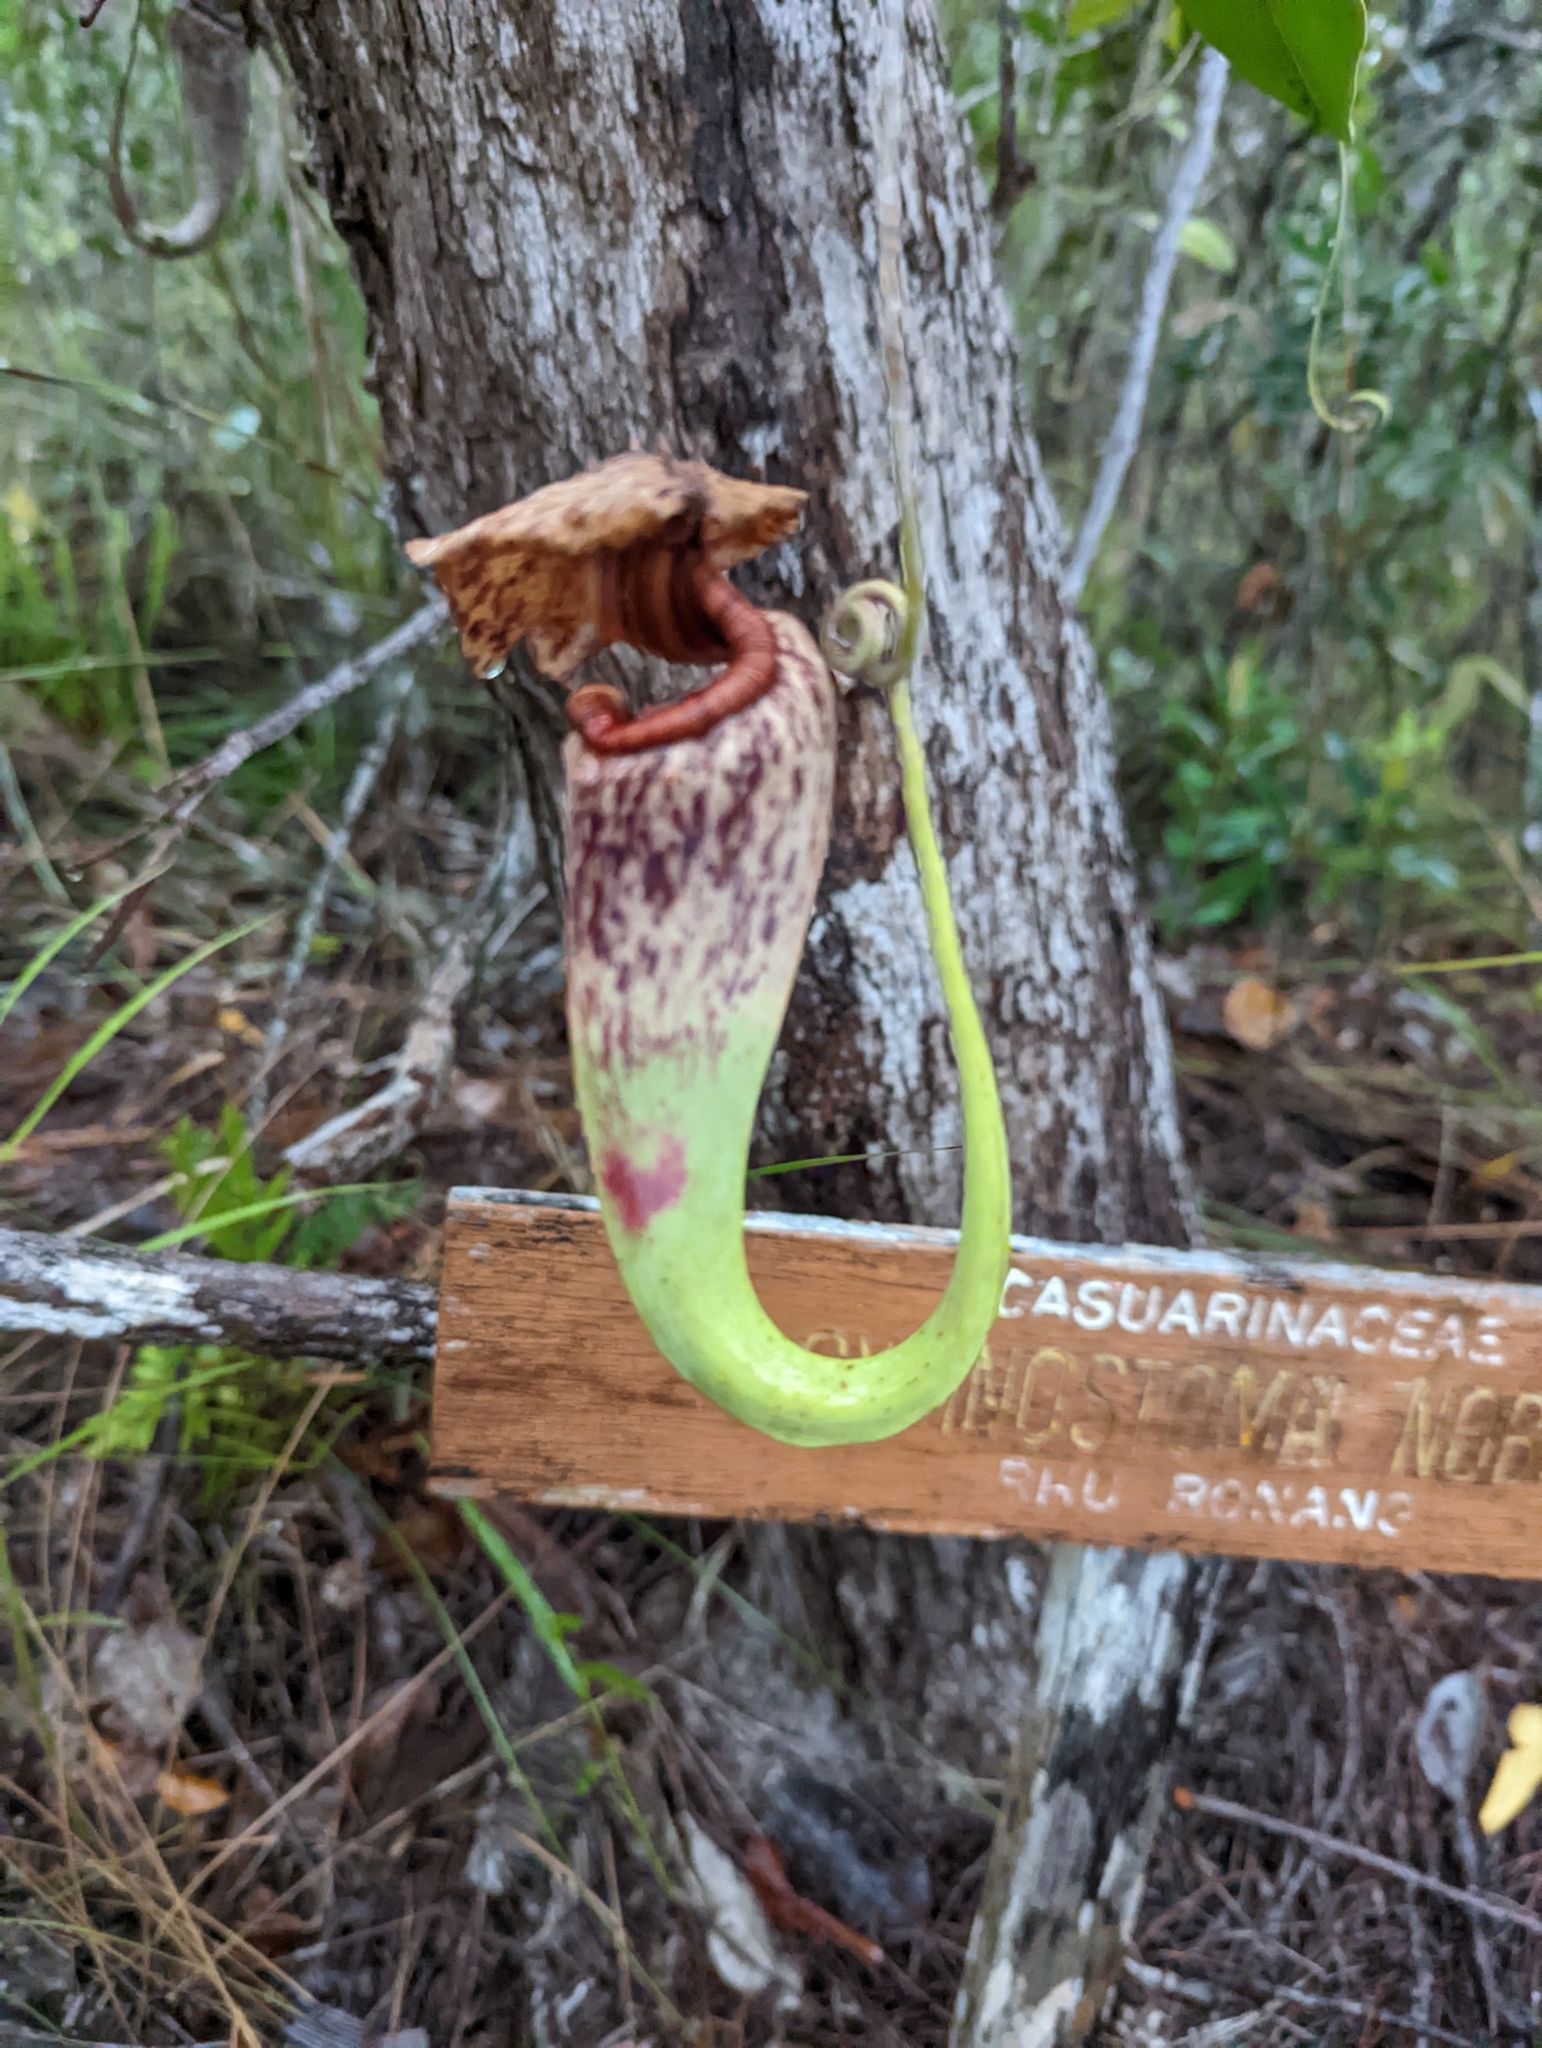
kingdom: Plantae
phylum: Tracheophyta
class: Magnoliopsida
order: Caryophyllales
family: Nepenthaceae
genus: Nepenthes
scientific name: Nepenthes rafflesiana
